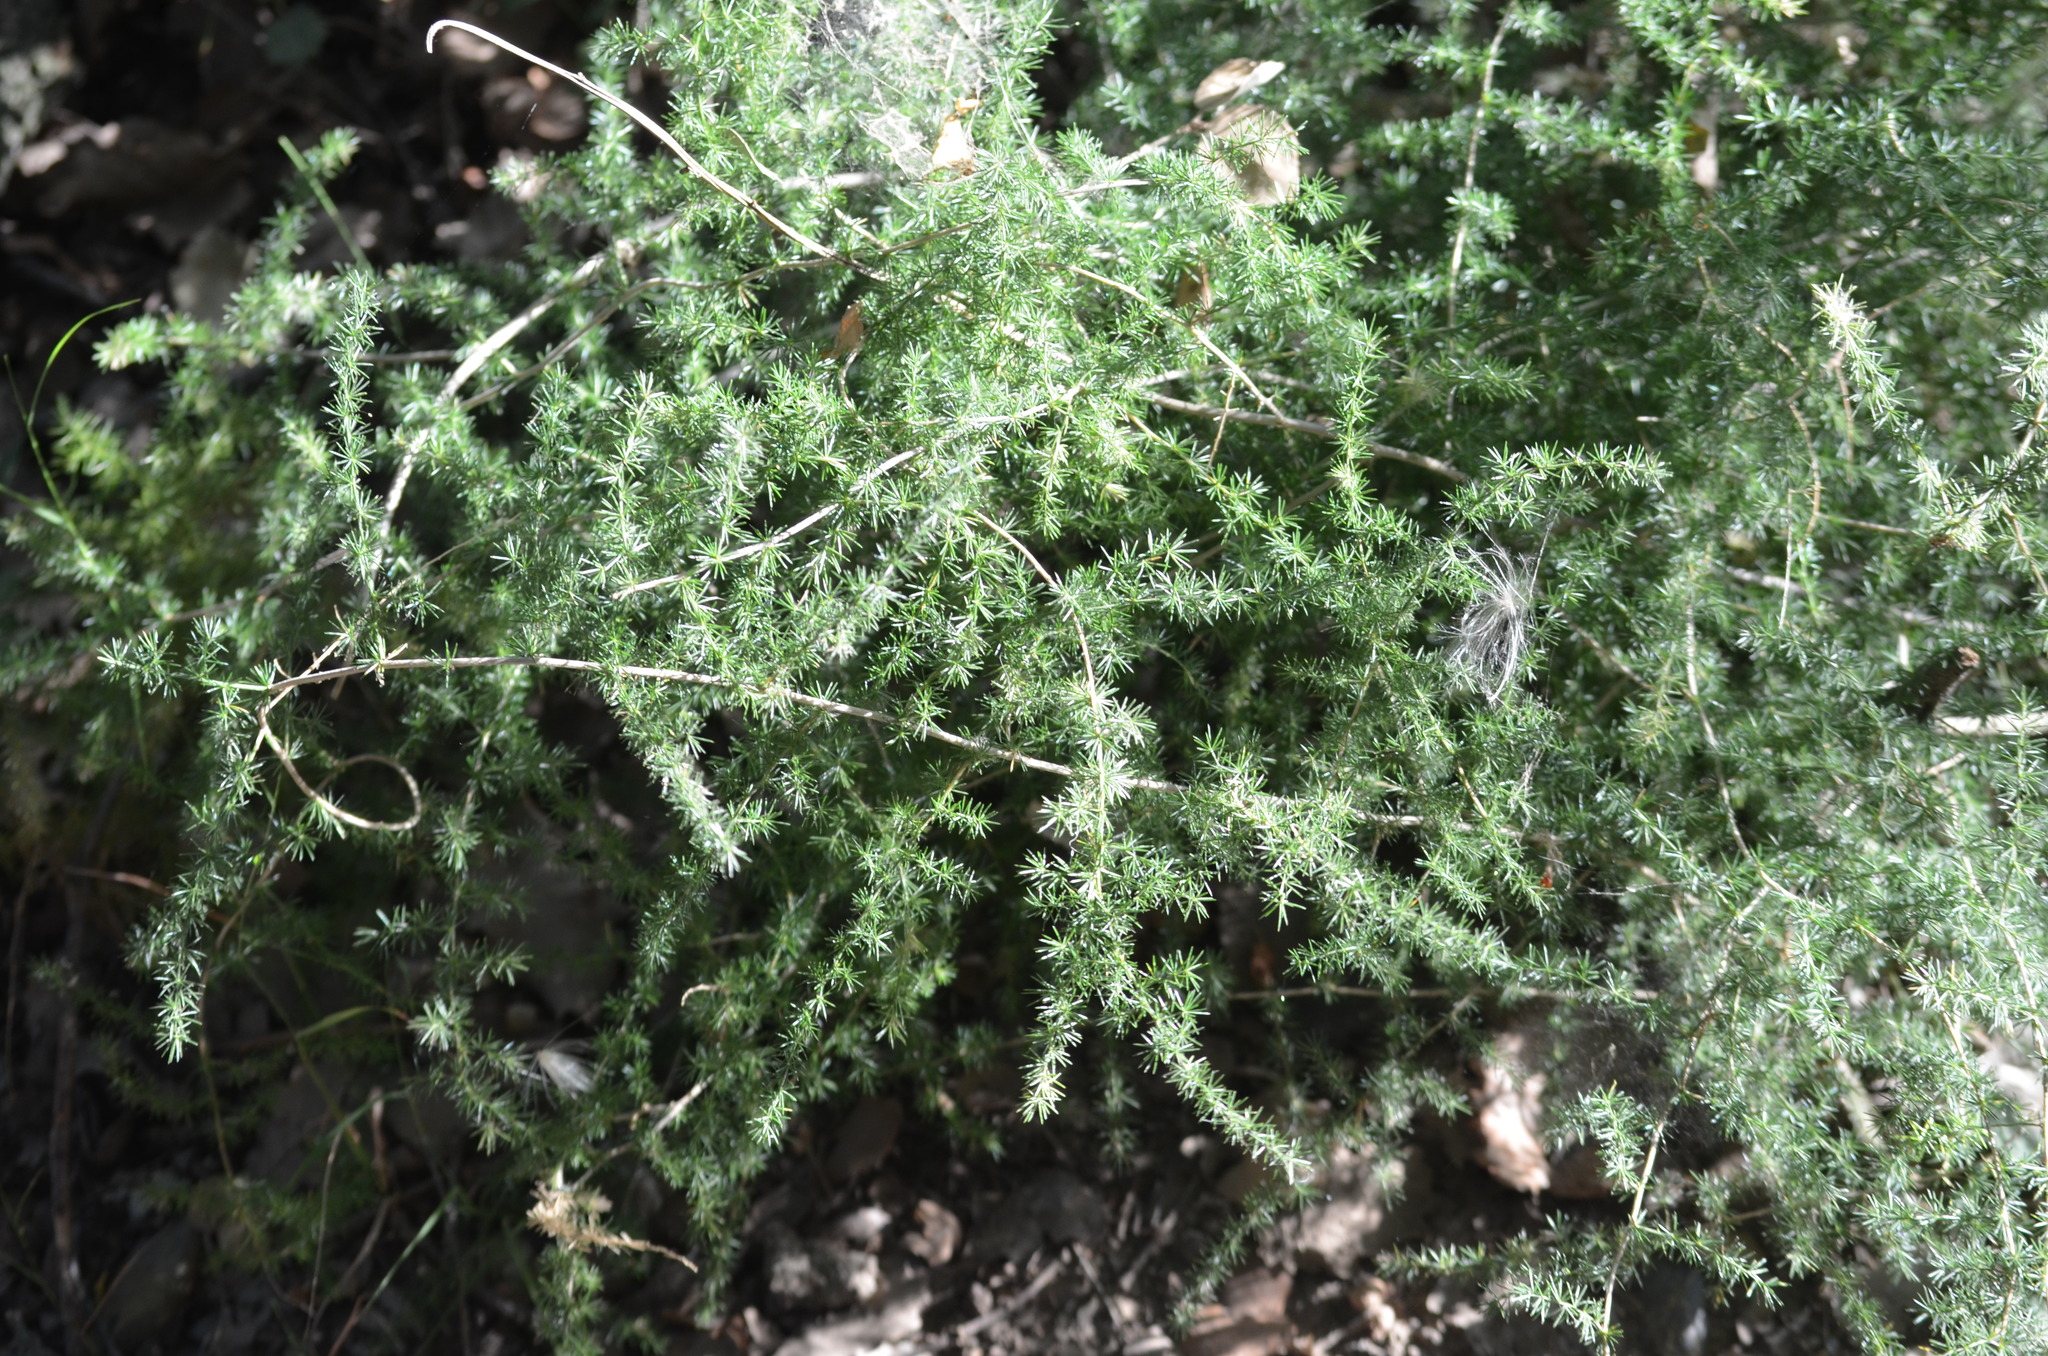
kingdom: Plantae
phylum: Tracheophyta
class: Liliopsida
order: Asparagales
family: Asparagaceae
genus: Asparagus
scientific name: Asparagus acutifolius
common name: Wild asparagus
